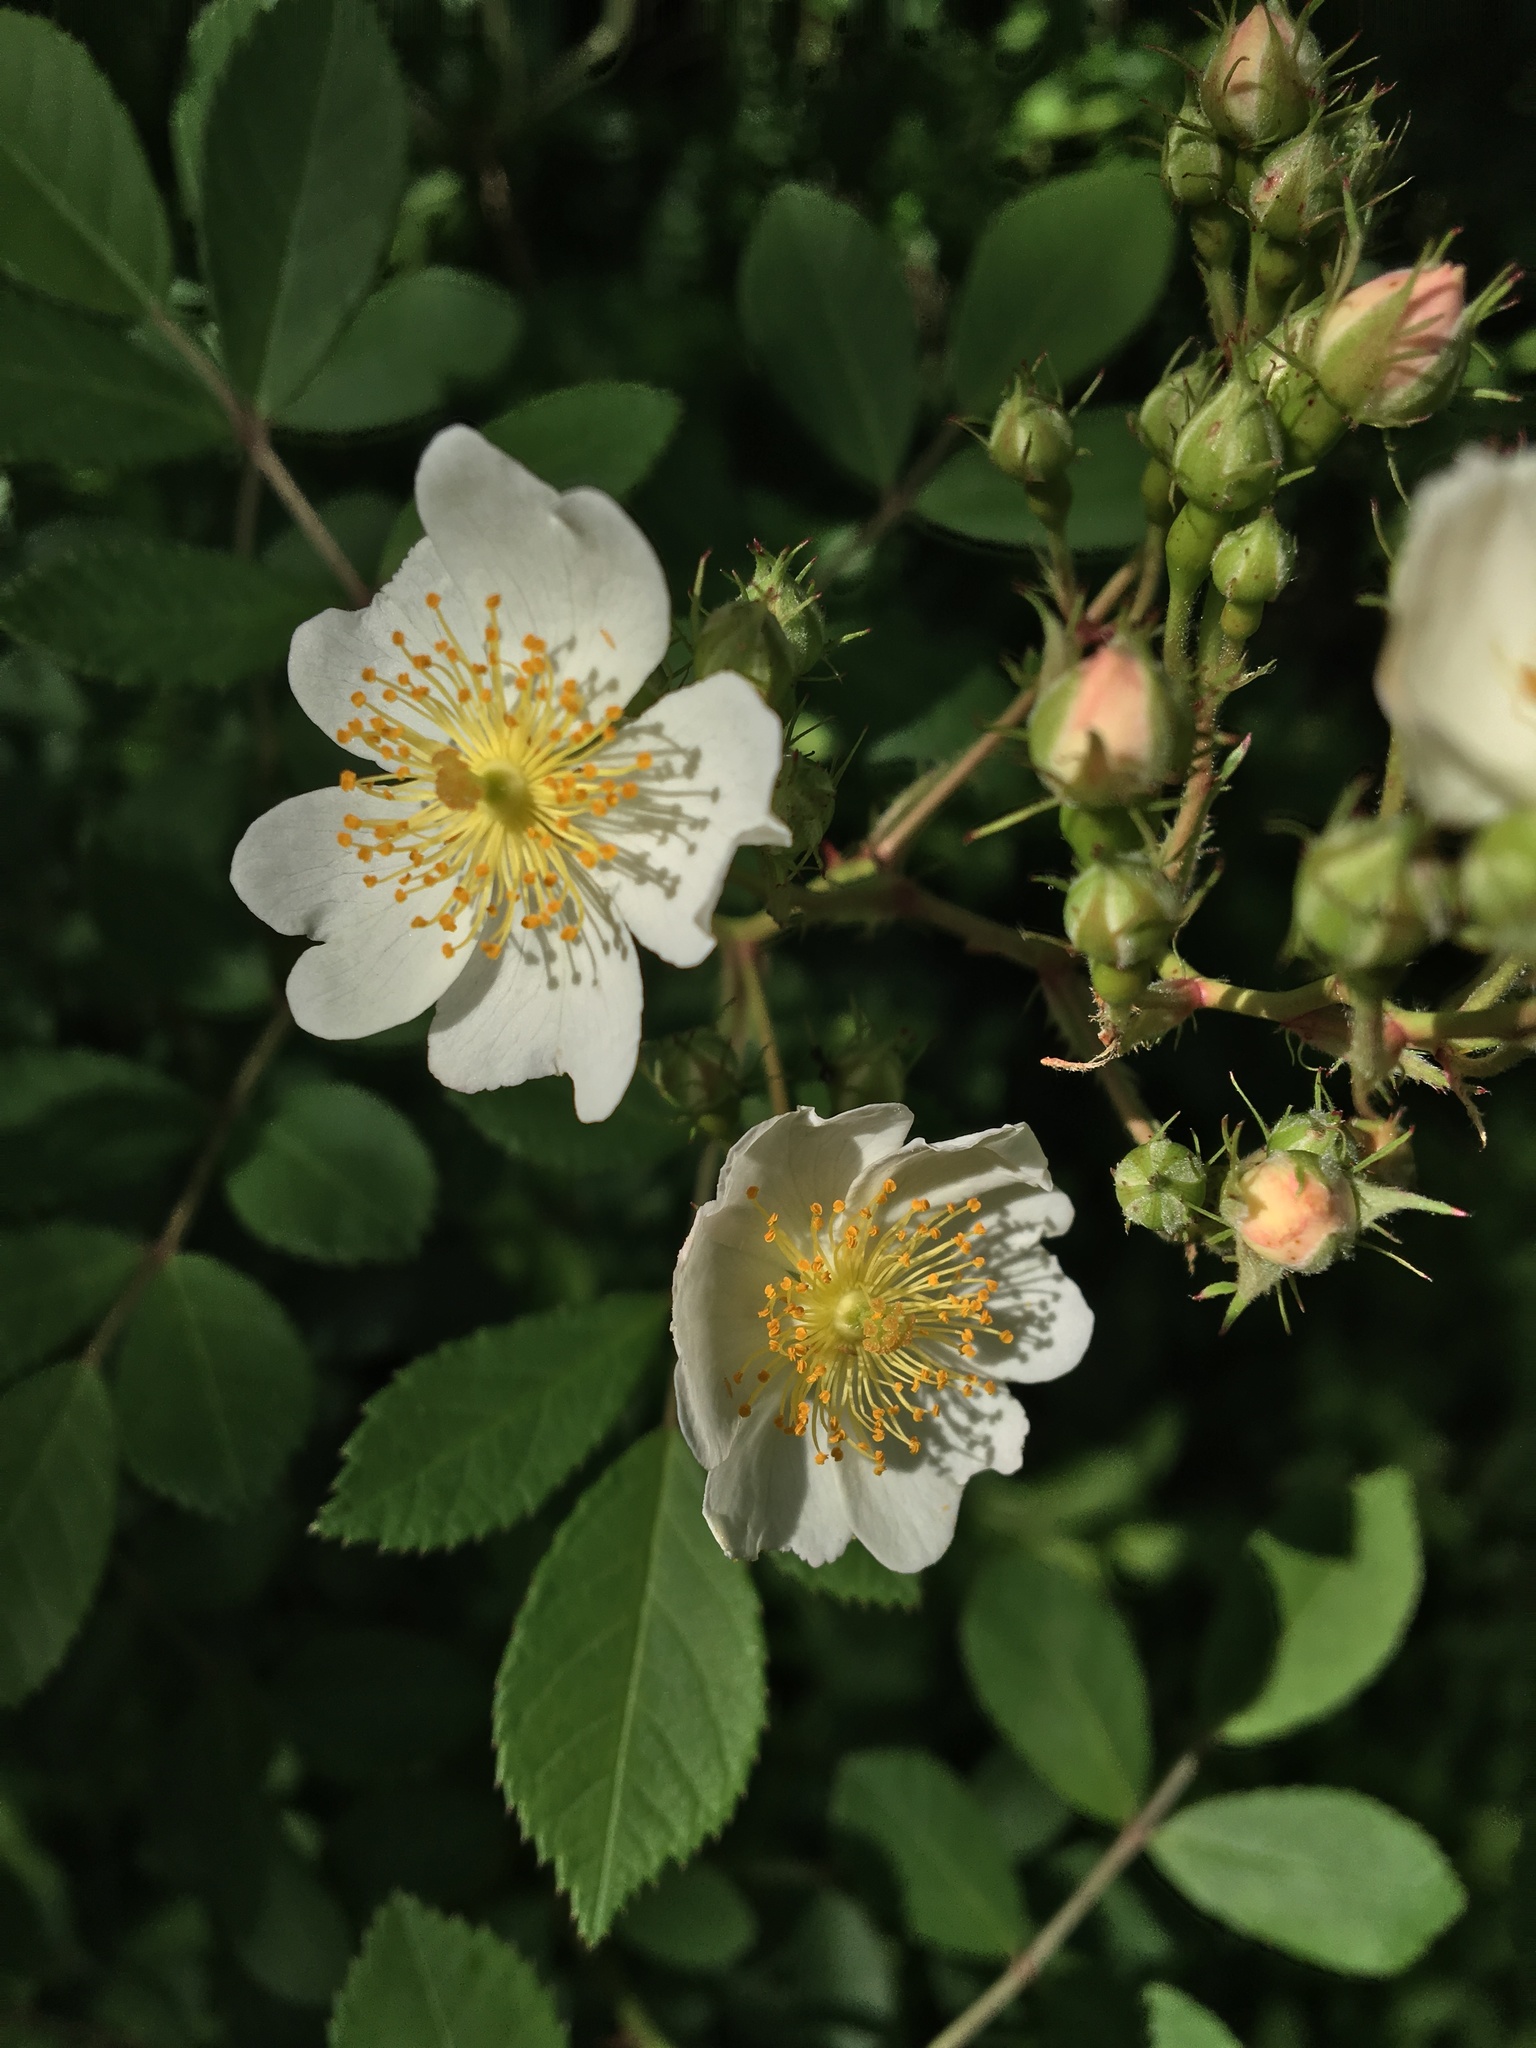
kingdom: Plantae
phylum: Tracheophyta
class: Magnoliopsida
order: Rosales
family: Rosaceae
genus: Rosa
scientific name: Rosa multiflora
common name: Multiflora rose
